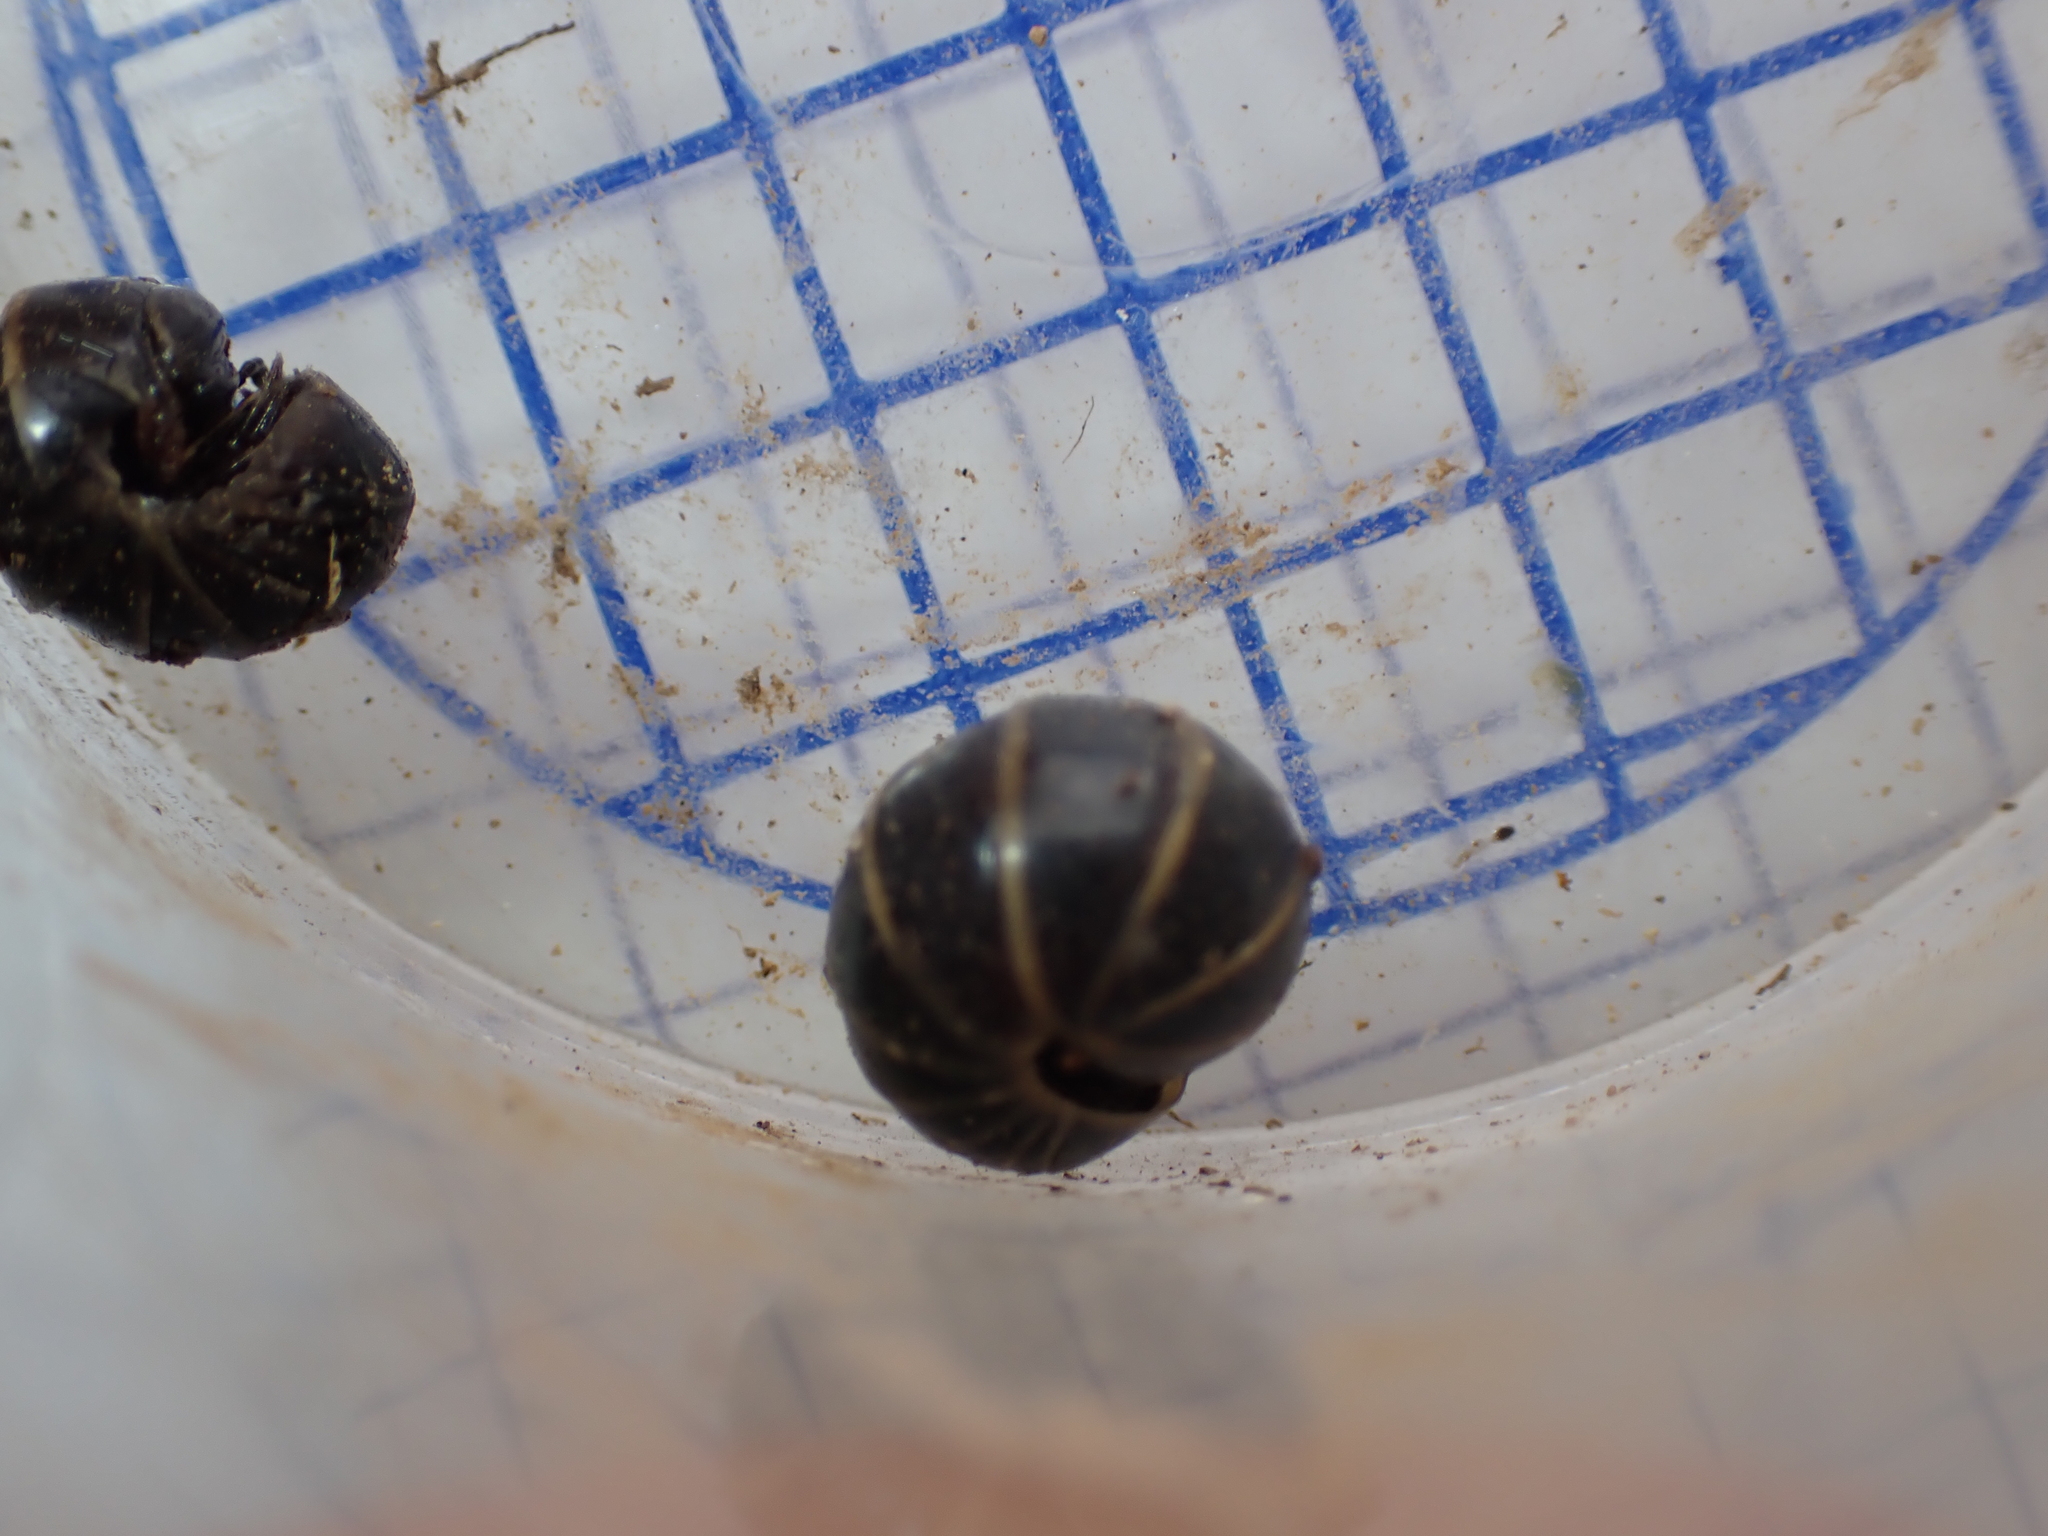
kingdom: Animalia
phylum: Arthropoda
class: Diplopoda
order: Glomerida
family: Glomeridae
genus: Glomeris
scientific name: Glomeris marginata
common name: Bordered pill millipede
